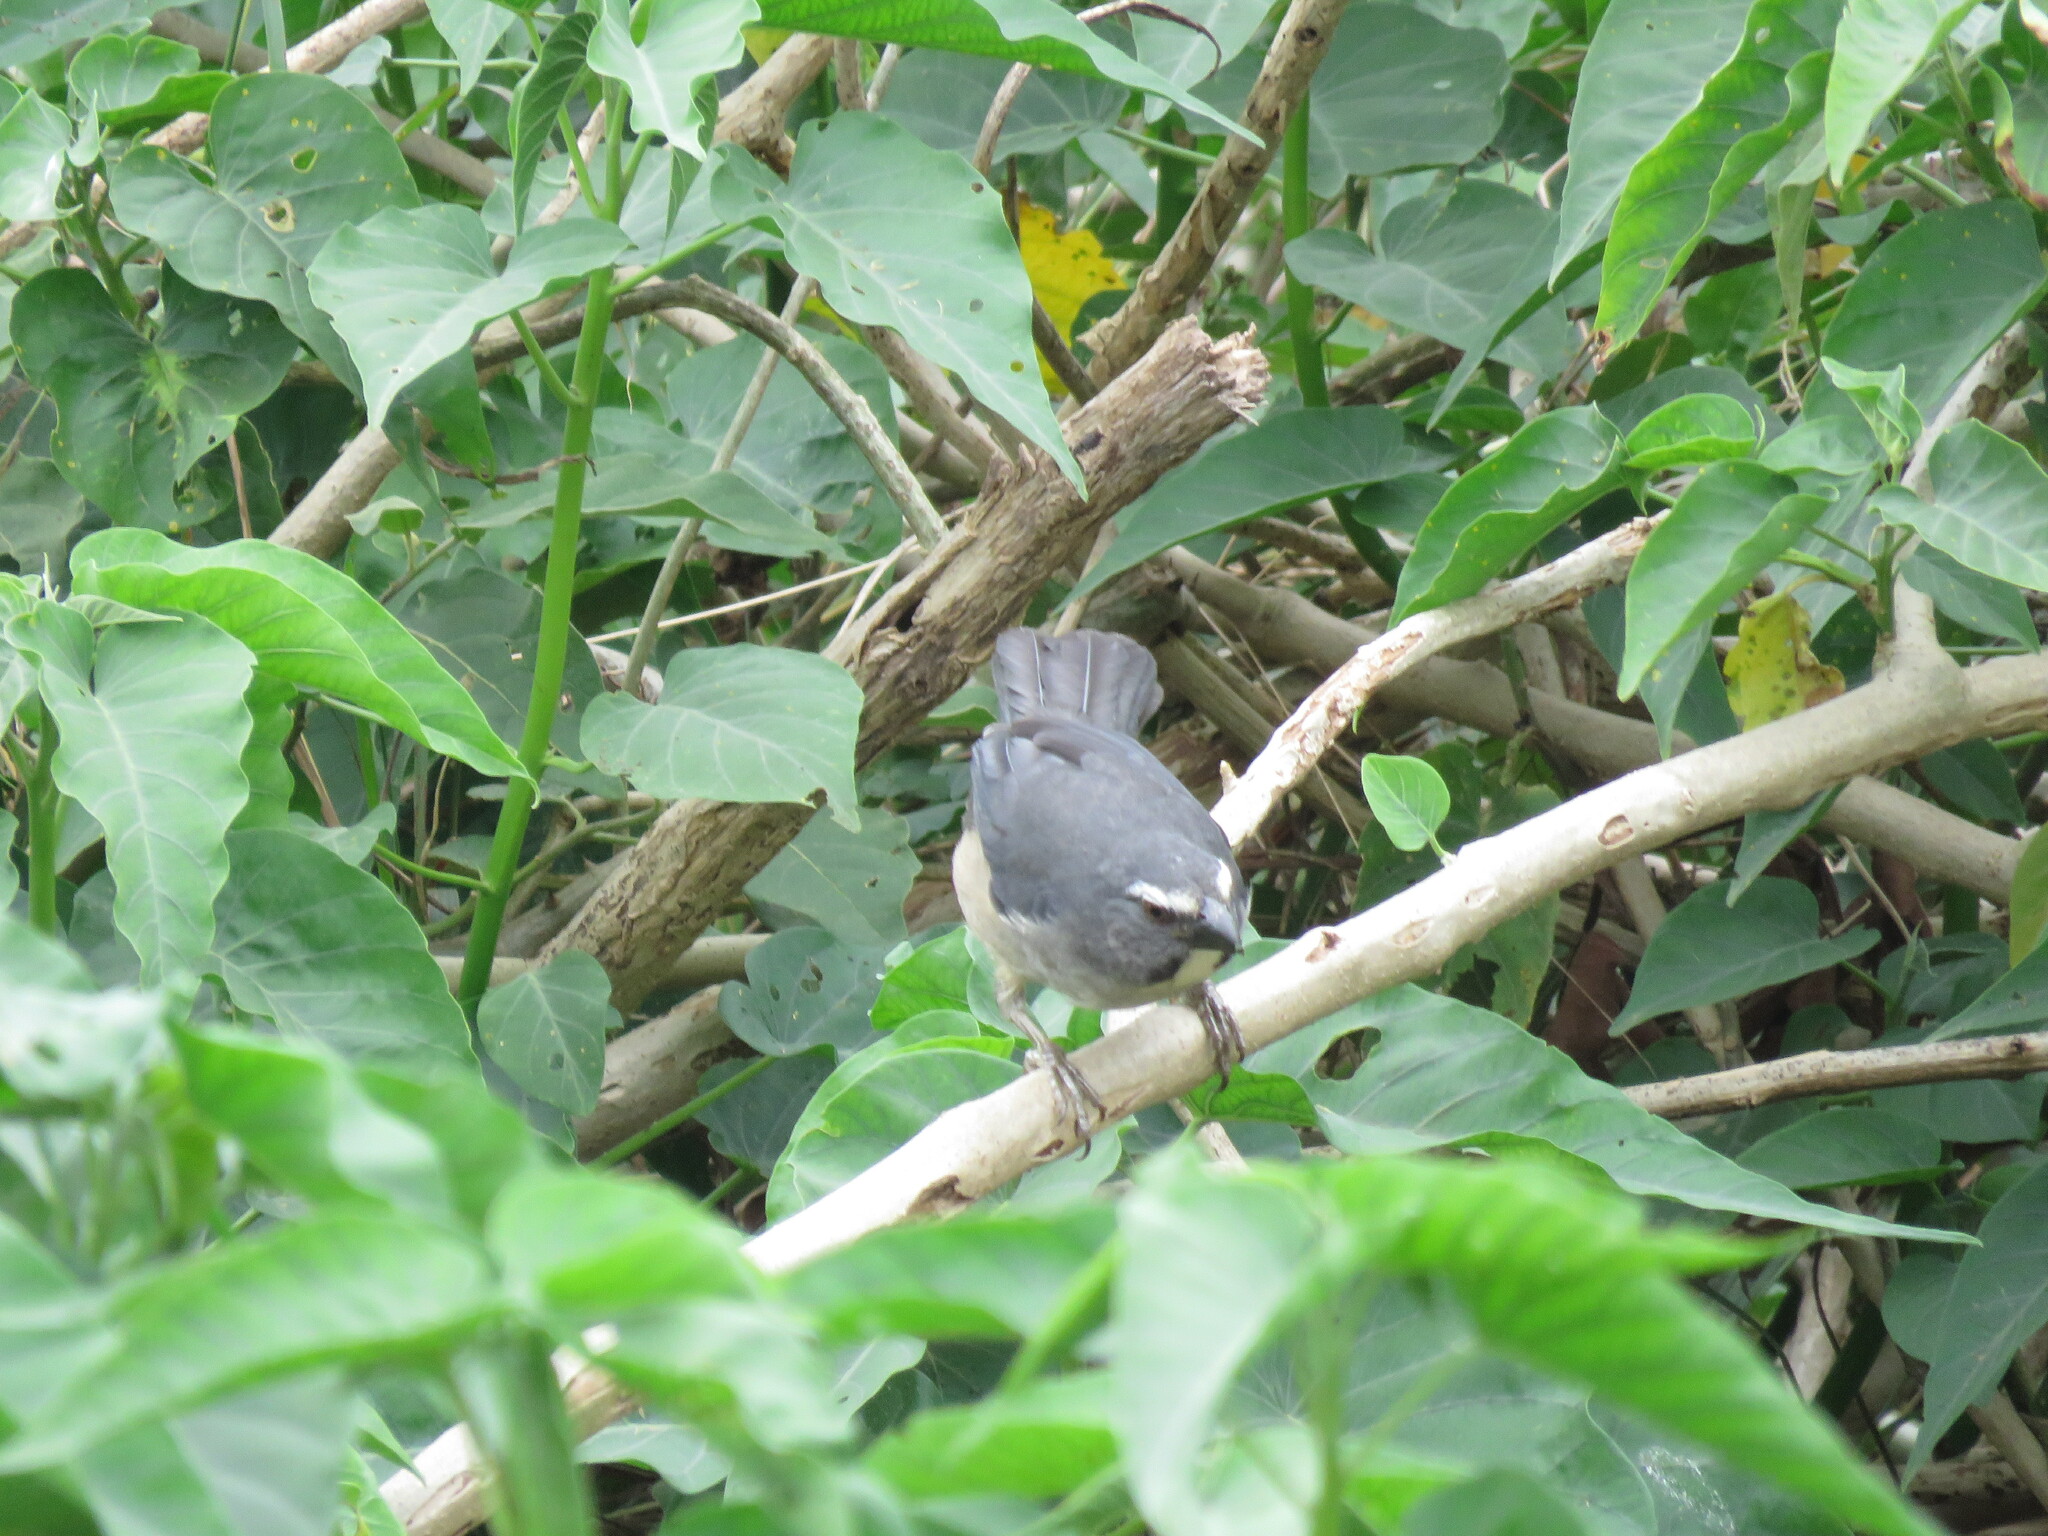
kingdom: Animalia
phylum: Chordata
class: Aves
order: Passeriformes
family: Thraupidae
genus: Saltator
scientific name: Saltator coerulescens
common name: Grayish saltator
